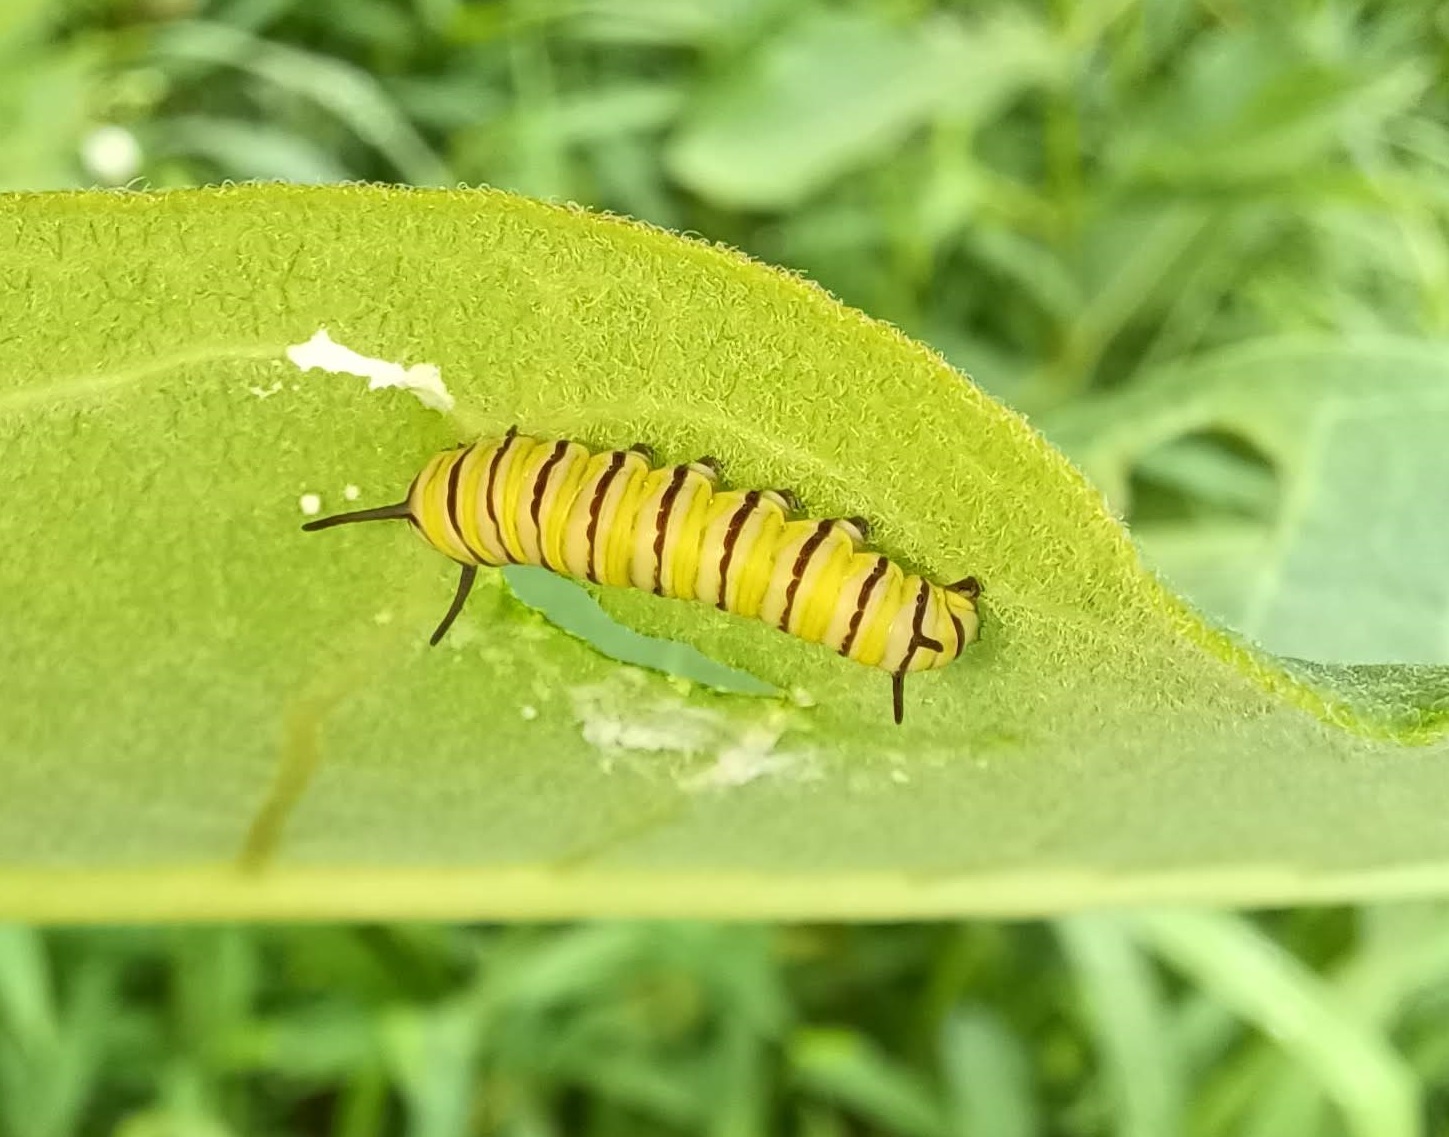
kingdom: Animalia
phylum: Arthropoda
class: Insecta
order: Lepidoptera
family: Nymphalidae
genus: Danaus
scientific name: Danaus plexippus
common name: Monarch
